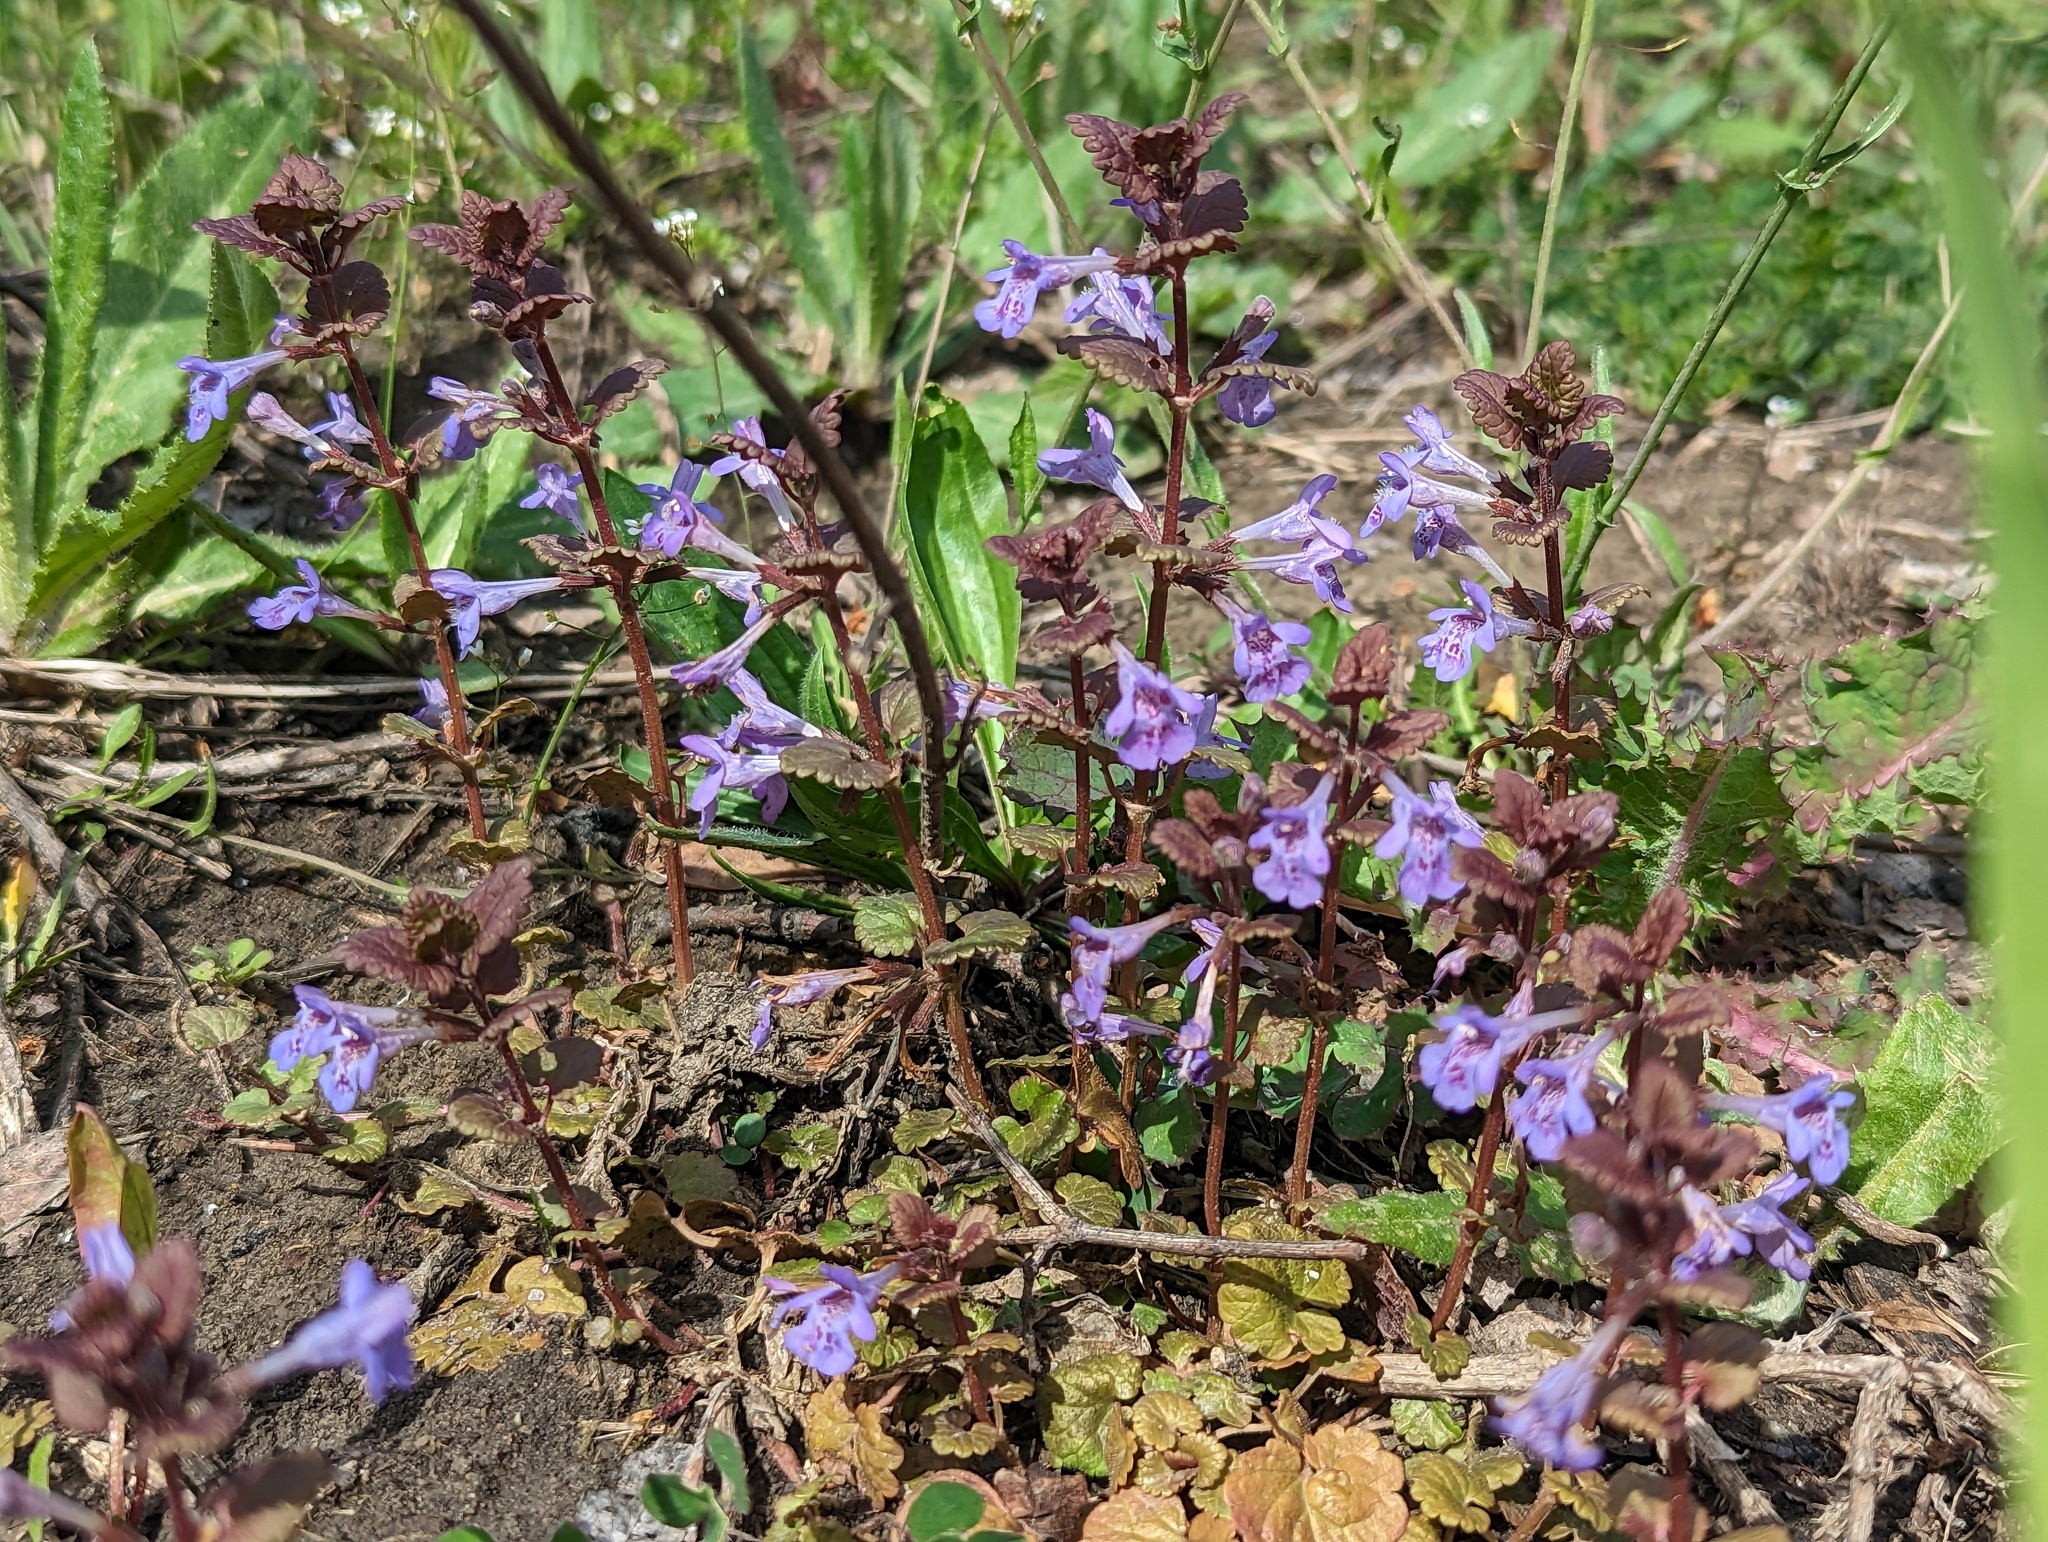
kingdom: Plantae
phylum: Tracheophyta
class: Magnoliopsida
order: Lamiales
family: Lamiaceae
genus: Glechoma
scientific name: Glechoma hederacea
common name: Ground ivy
